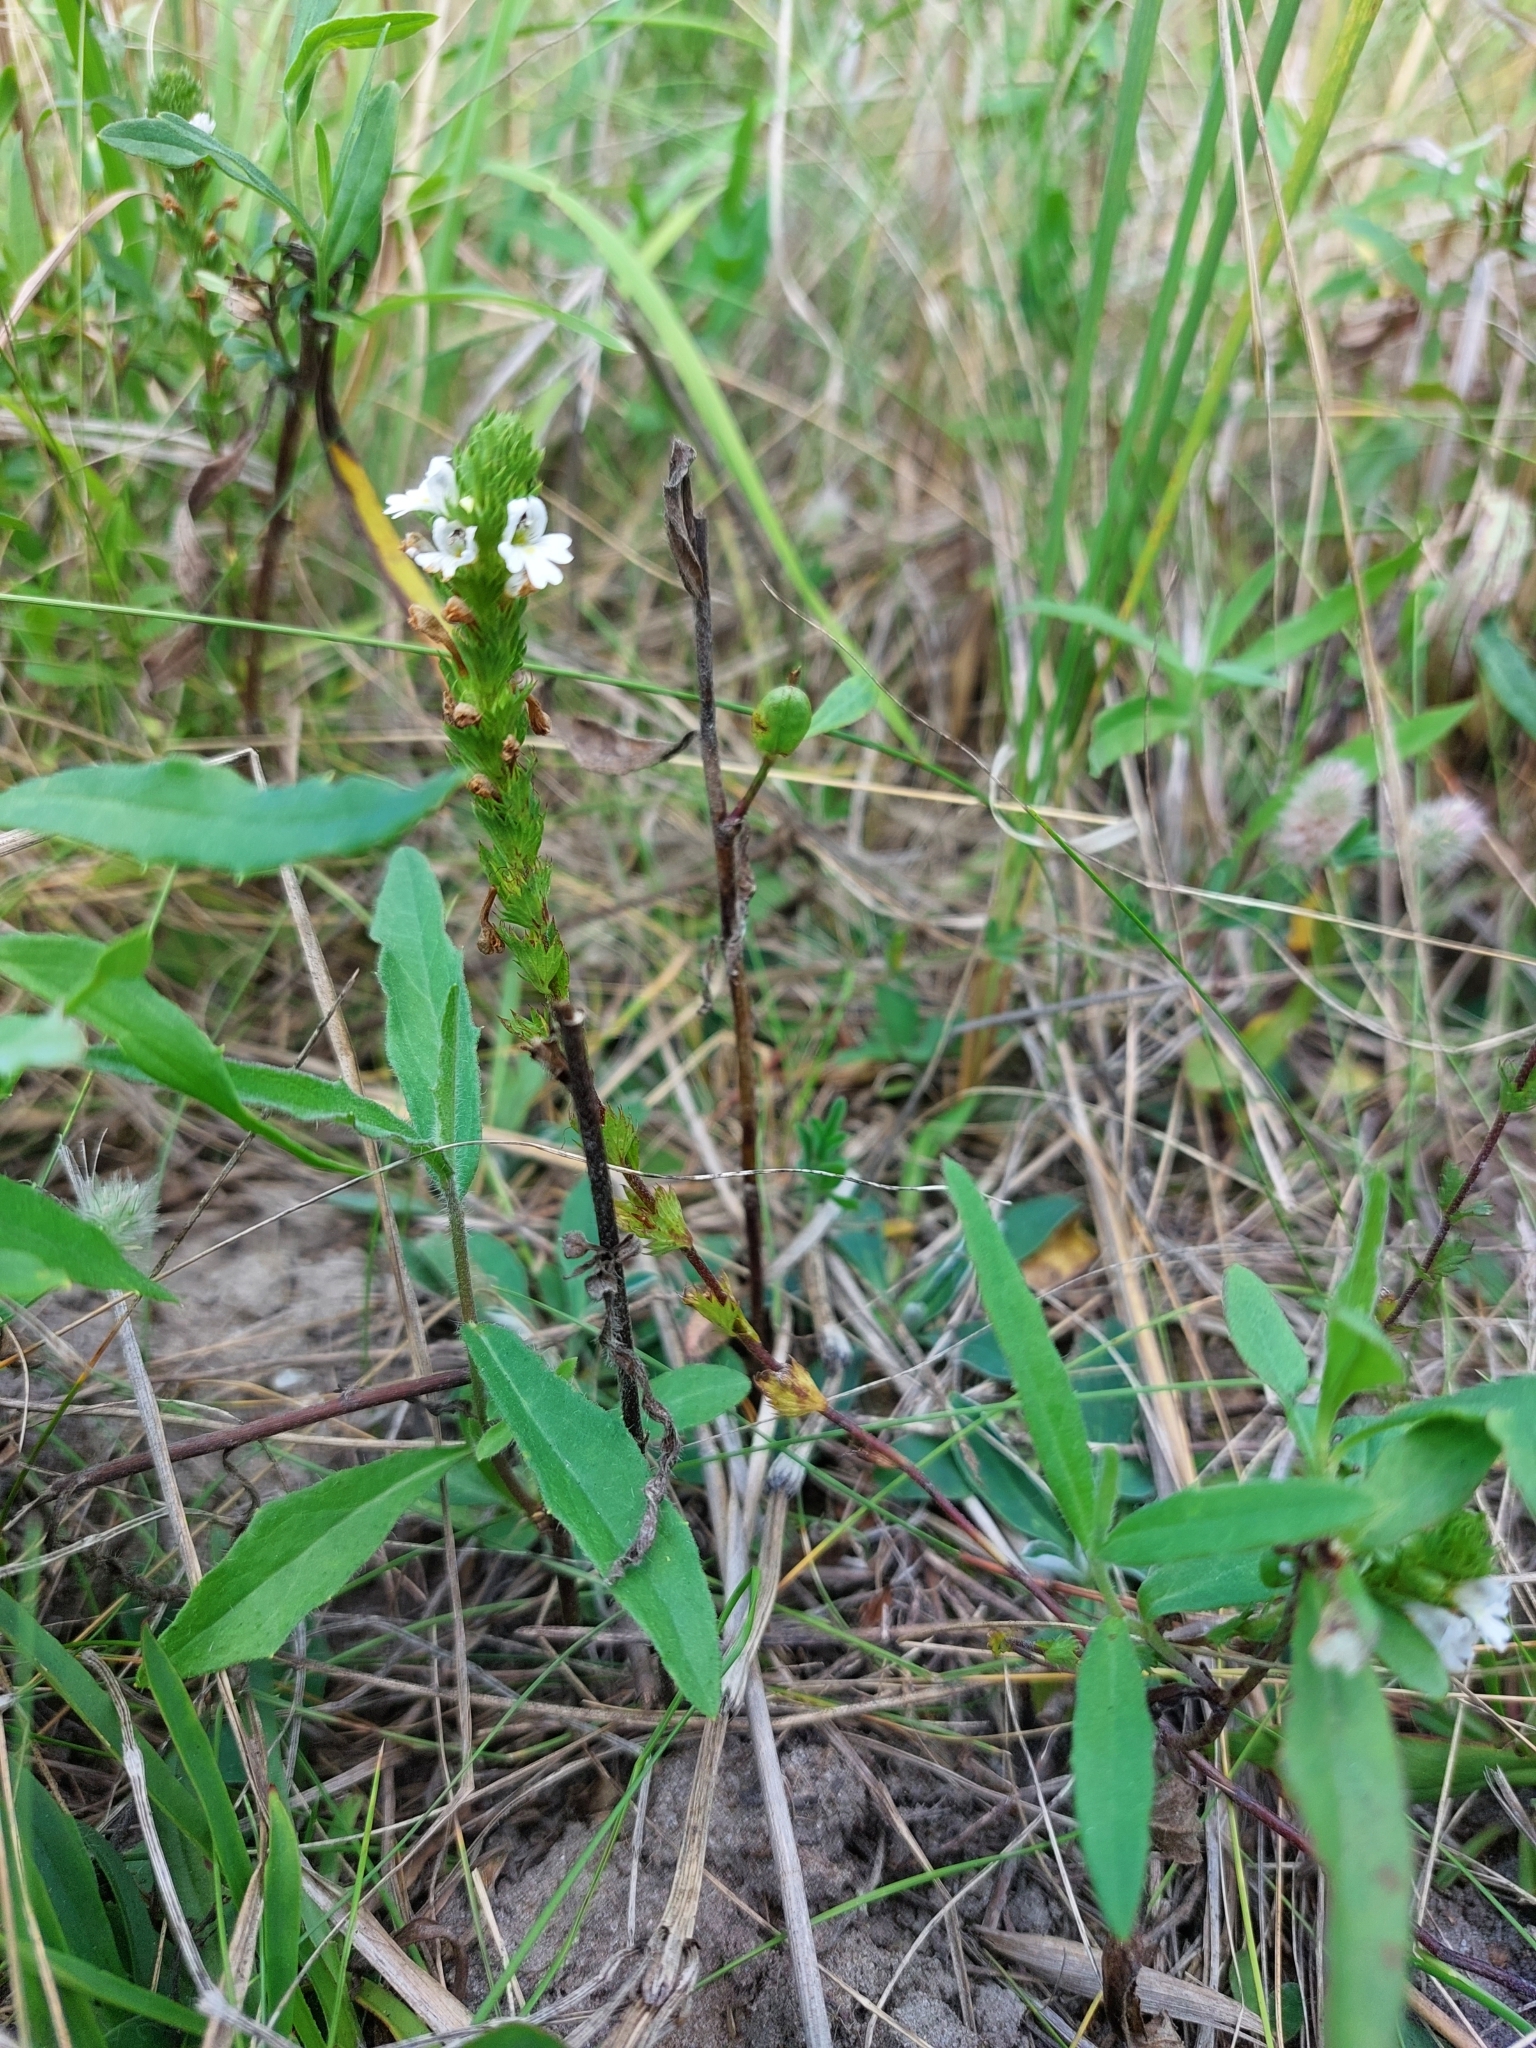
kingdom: Plantae
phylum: Tracheophyta
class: Magnoliopsida
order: Lamiales
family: Orobanchaceae
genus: Euphrasia
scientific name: Euphrasia stricta
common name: Drug eyebright
